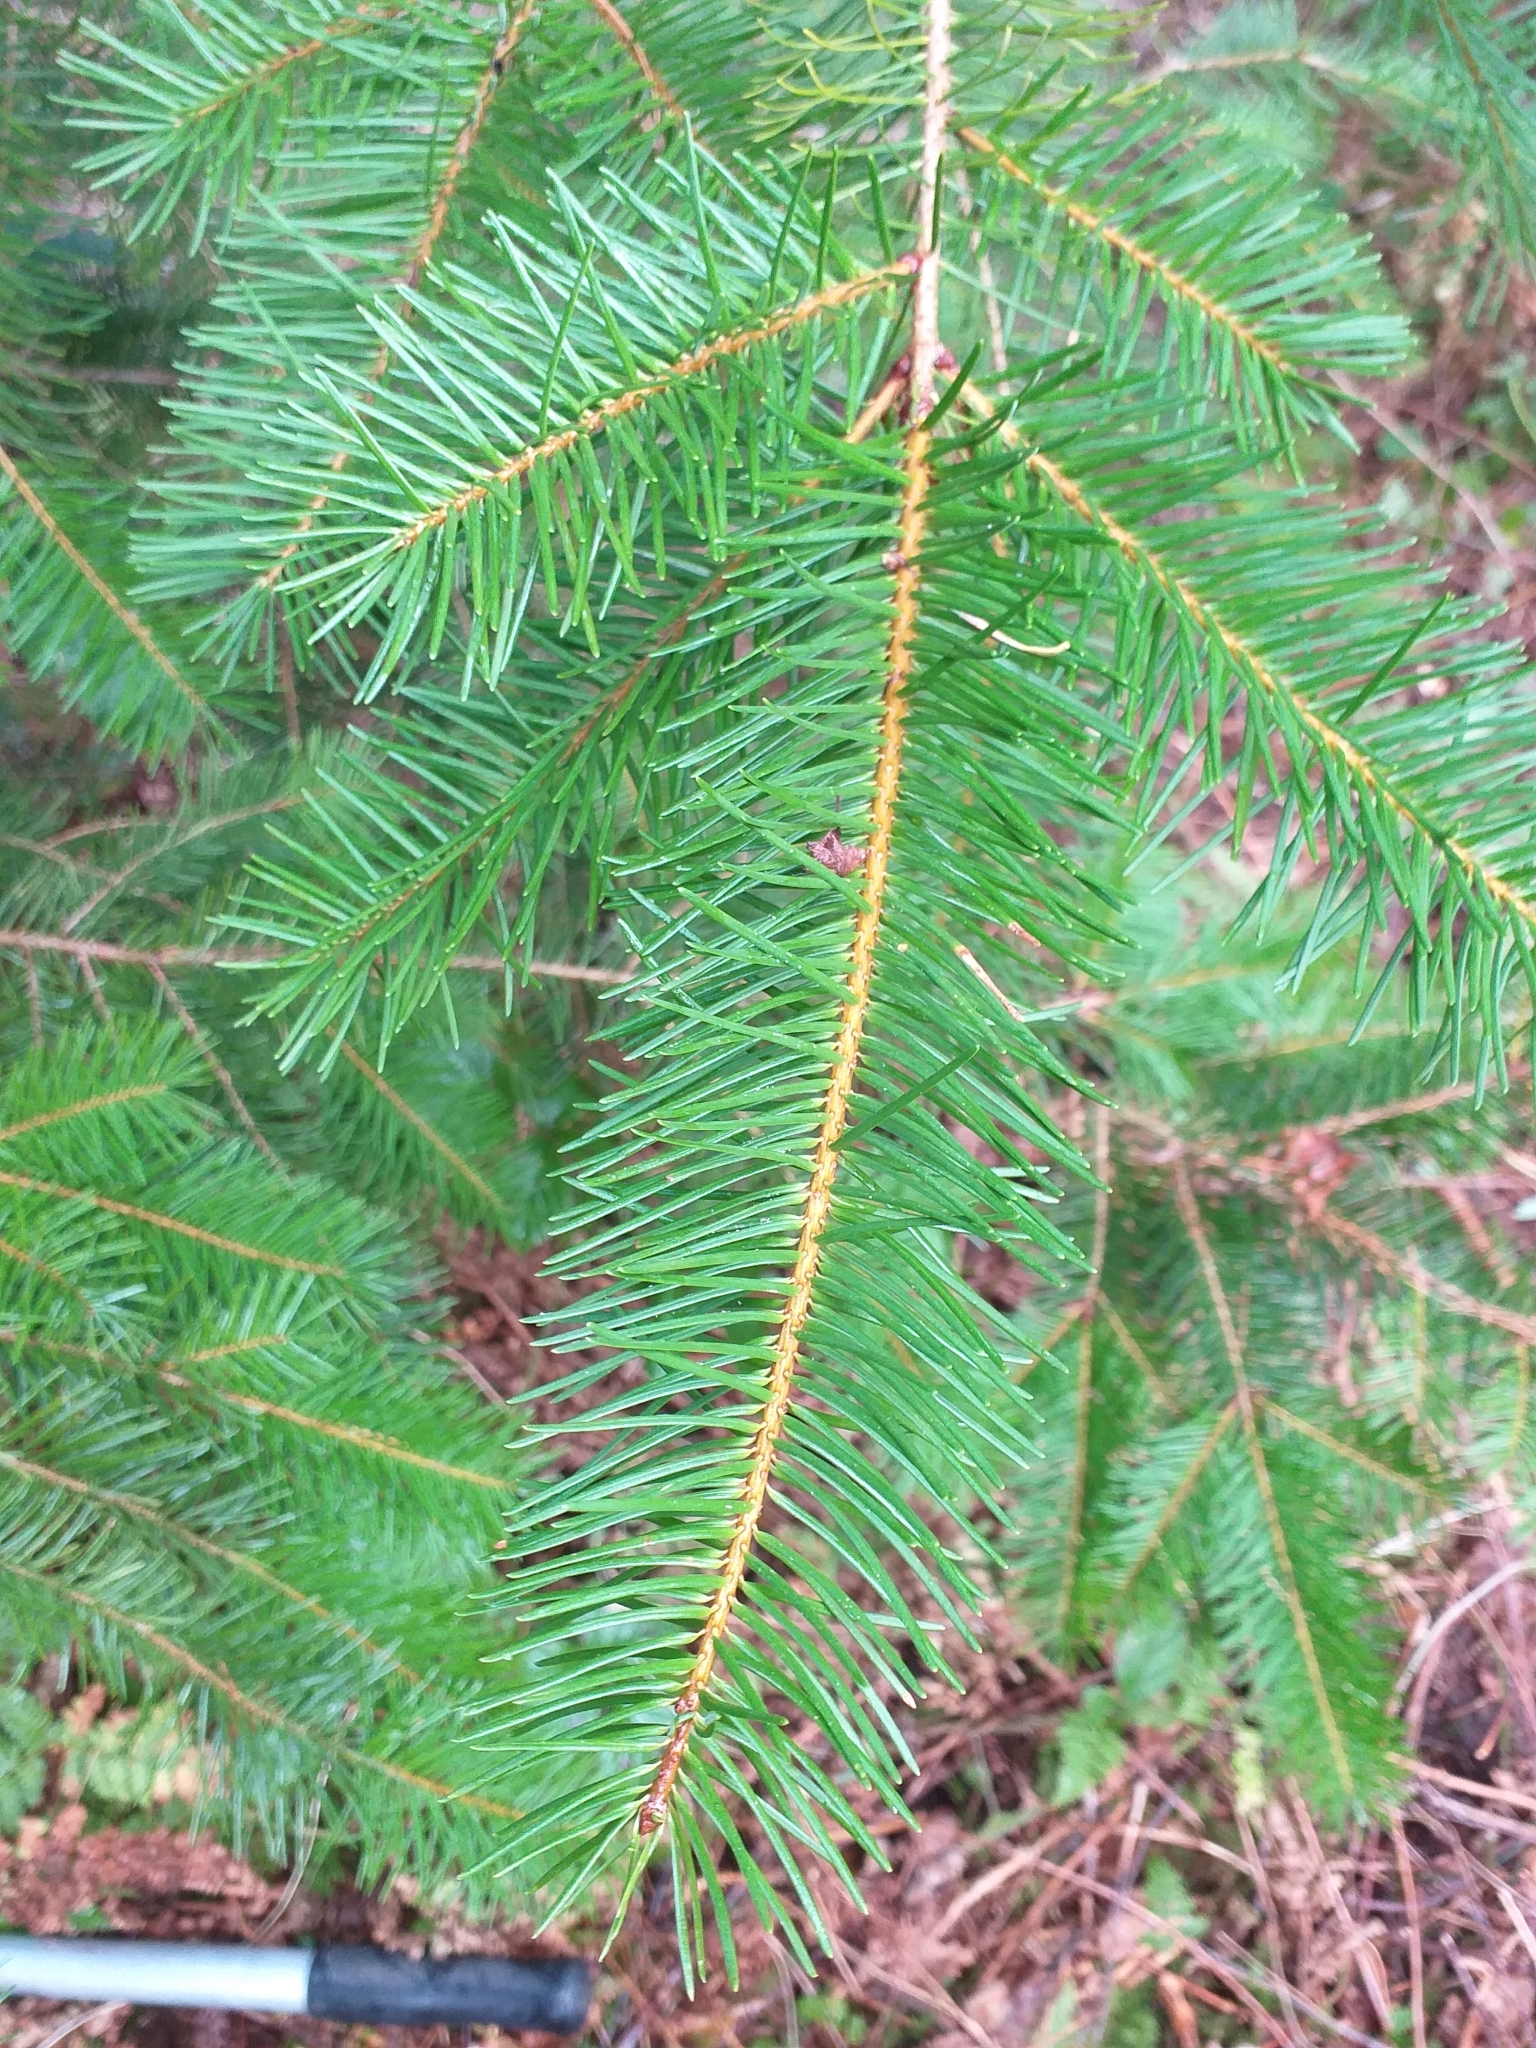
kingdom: Plantae
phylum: Tracheophyta
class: Pinopsida
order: Pinales
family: Pinaceae
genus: Pseudotsuga
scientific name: Pseudotsuga menziesii
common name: Douglas fir
